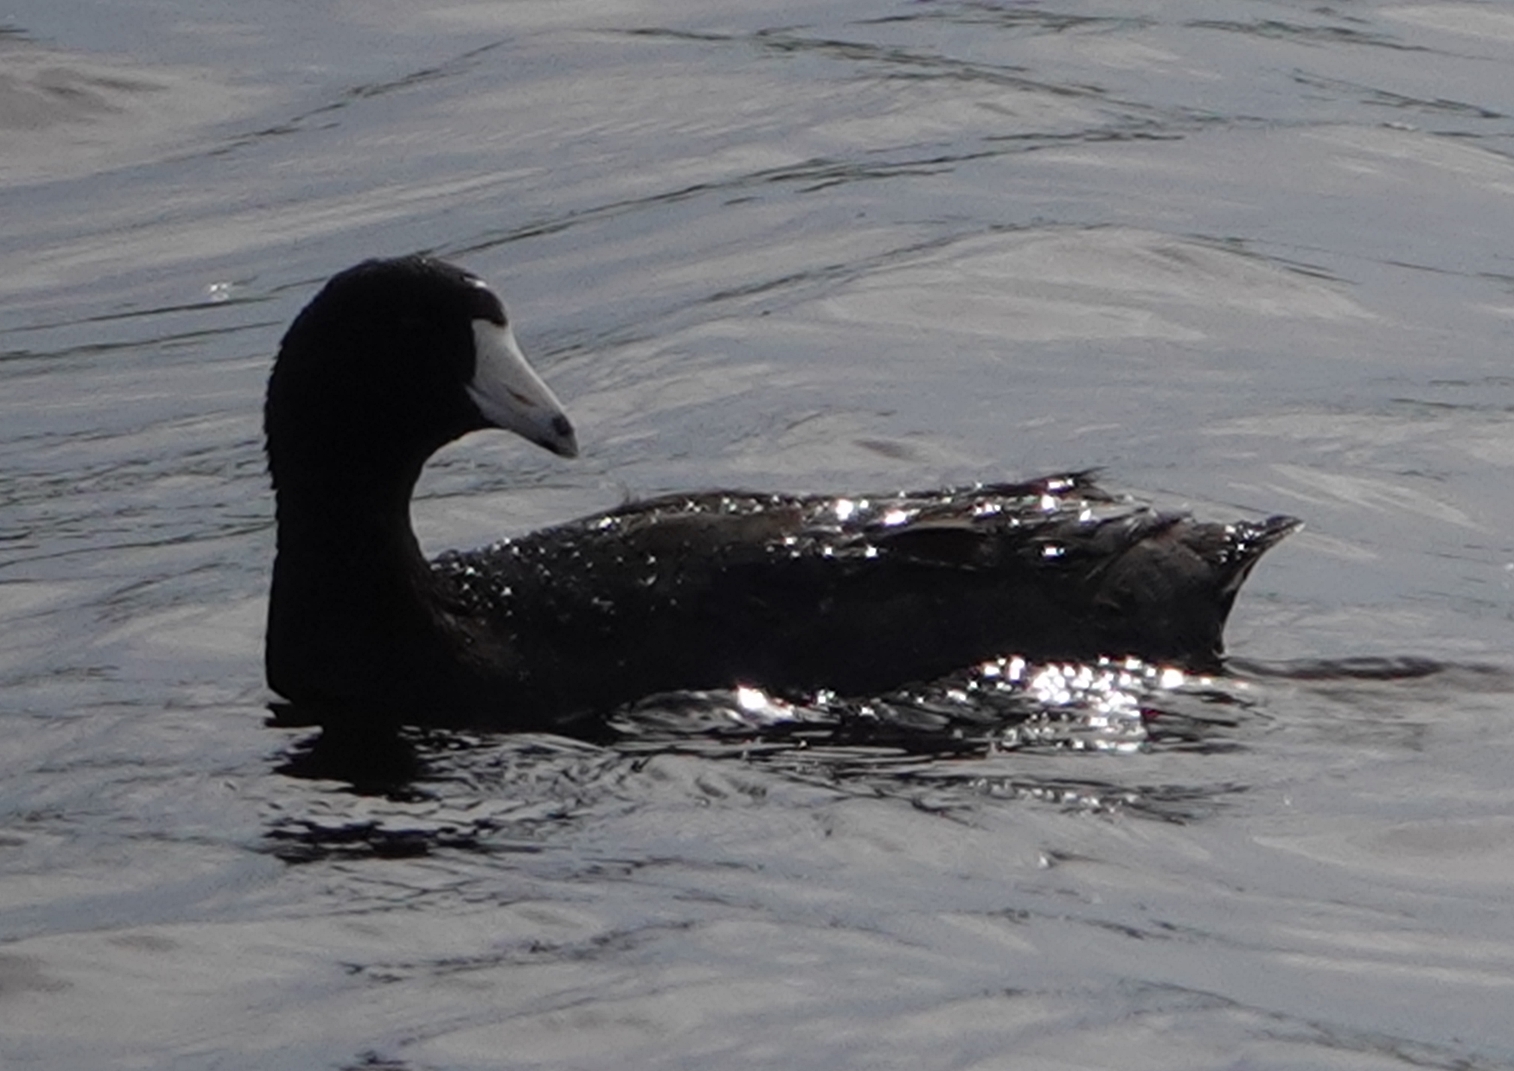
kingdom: Animalia
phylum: Chordata
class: Aves
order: Gruiformes
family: Rallidae
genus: Fulica
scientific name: Fulica americana
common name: American coot
